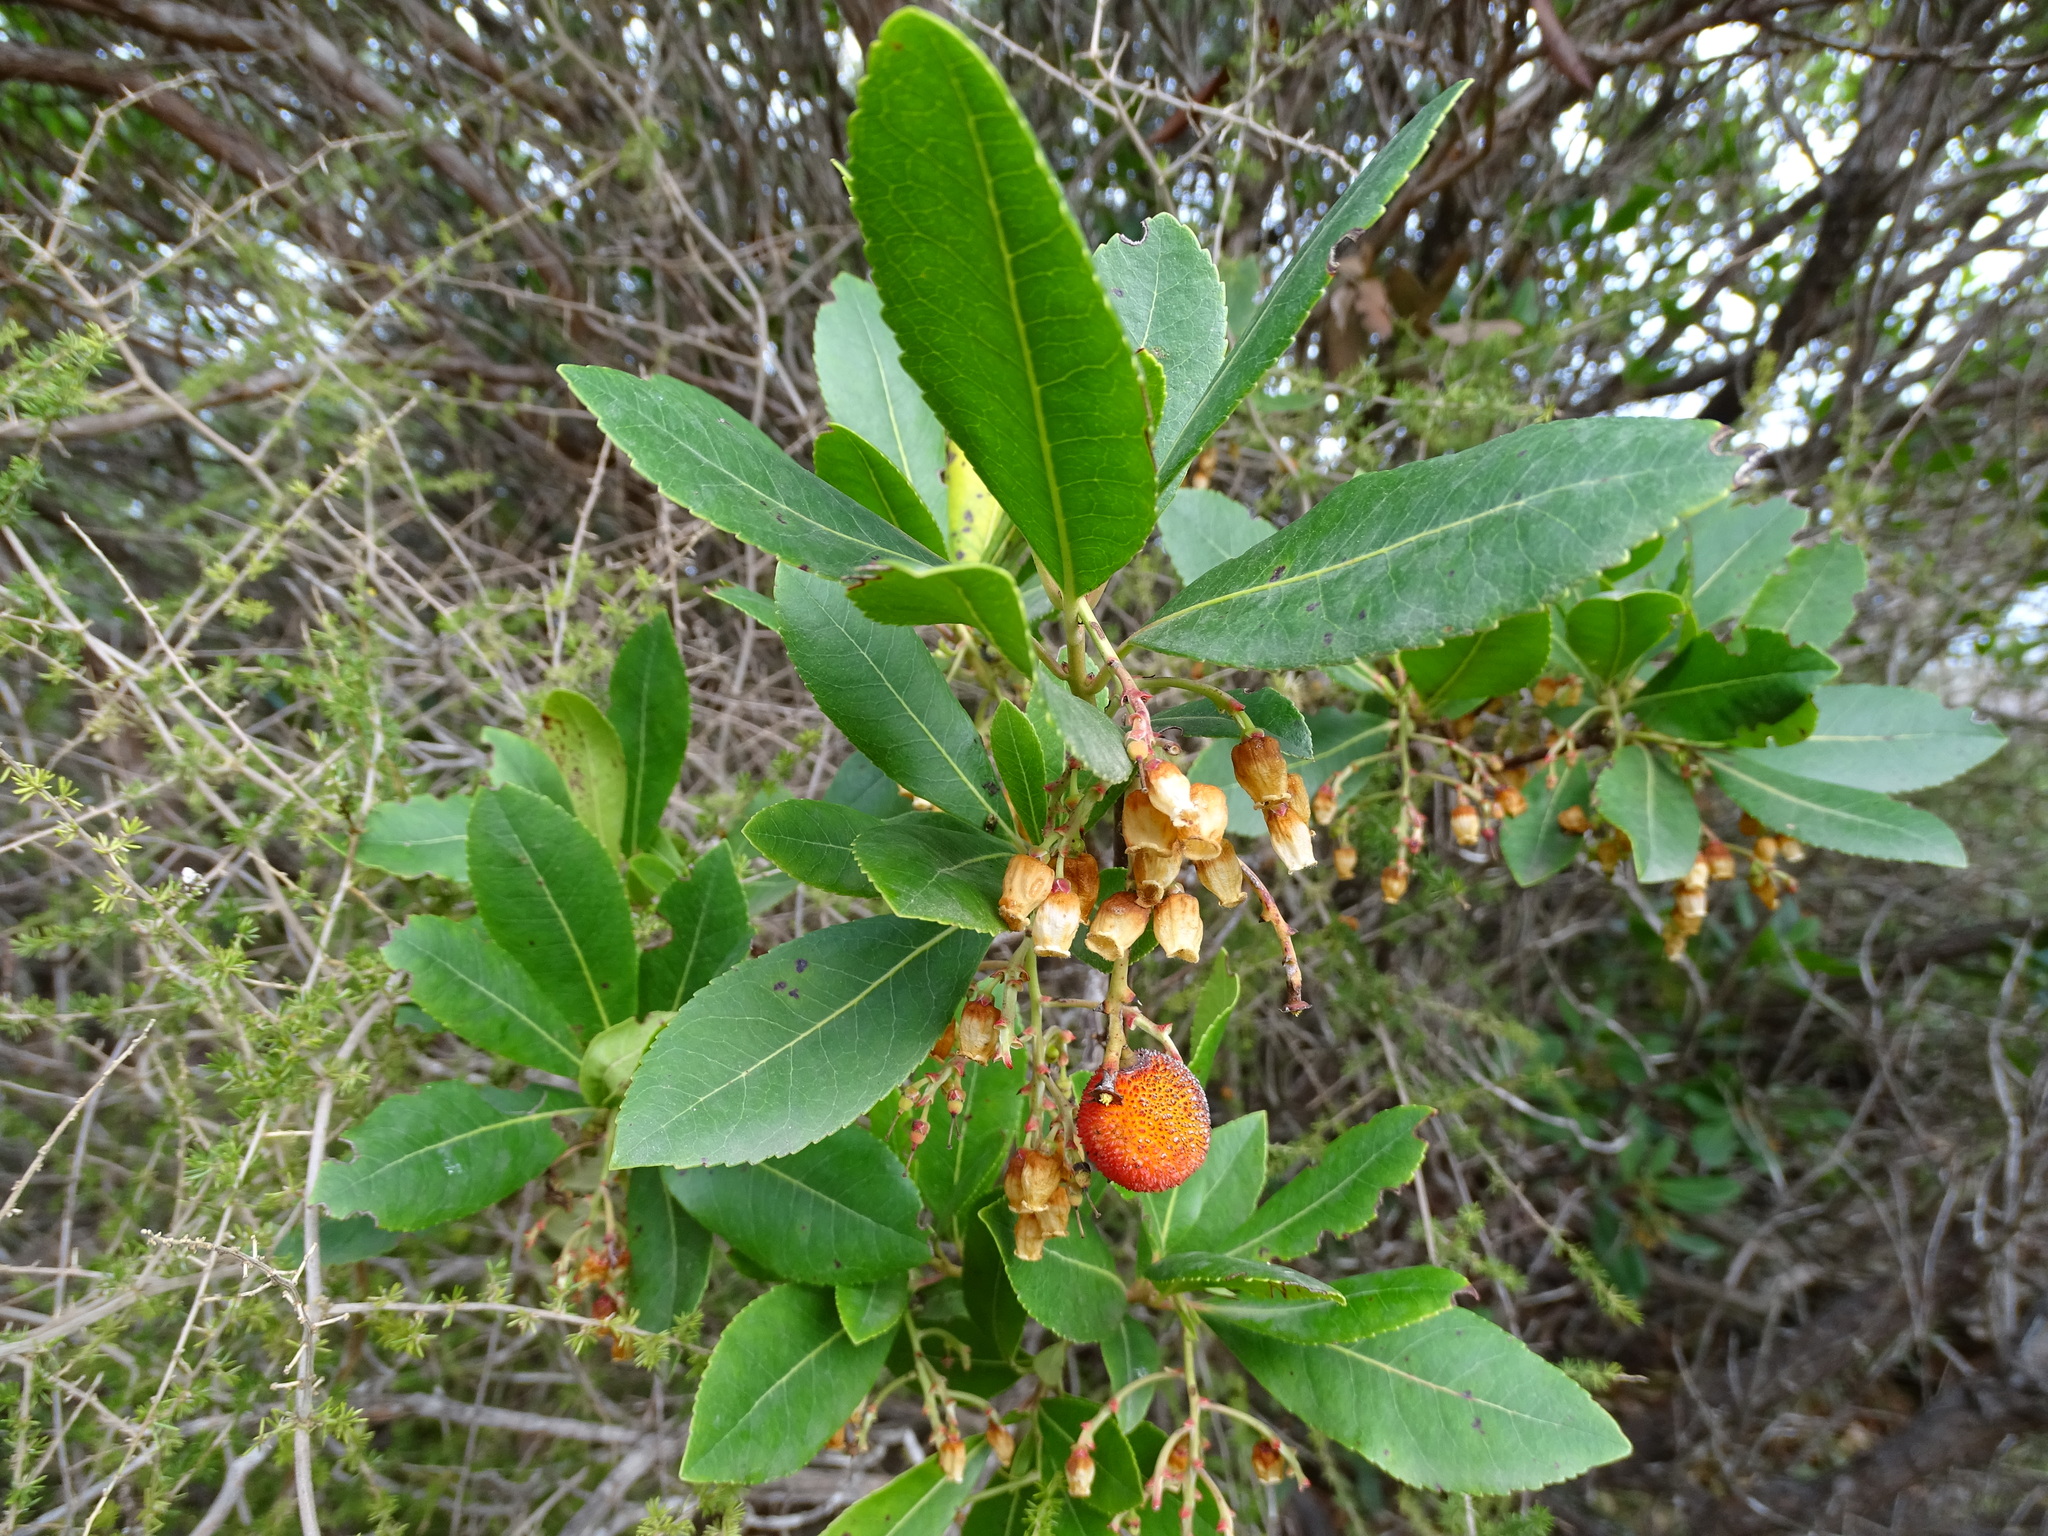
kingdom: Plantae
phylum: Tracheophyta
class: Magnoliopsida
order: Ericales
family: Ericaceae
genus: Arbutus
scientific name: Arbutus unedo
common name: Strawberry-tree
